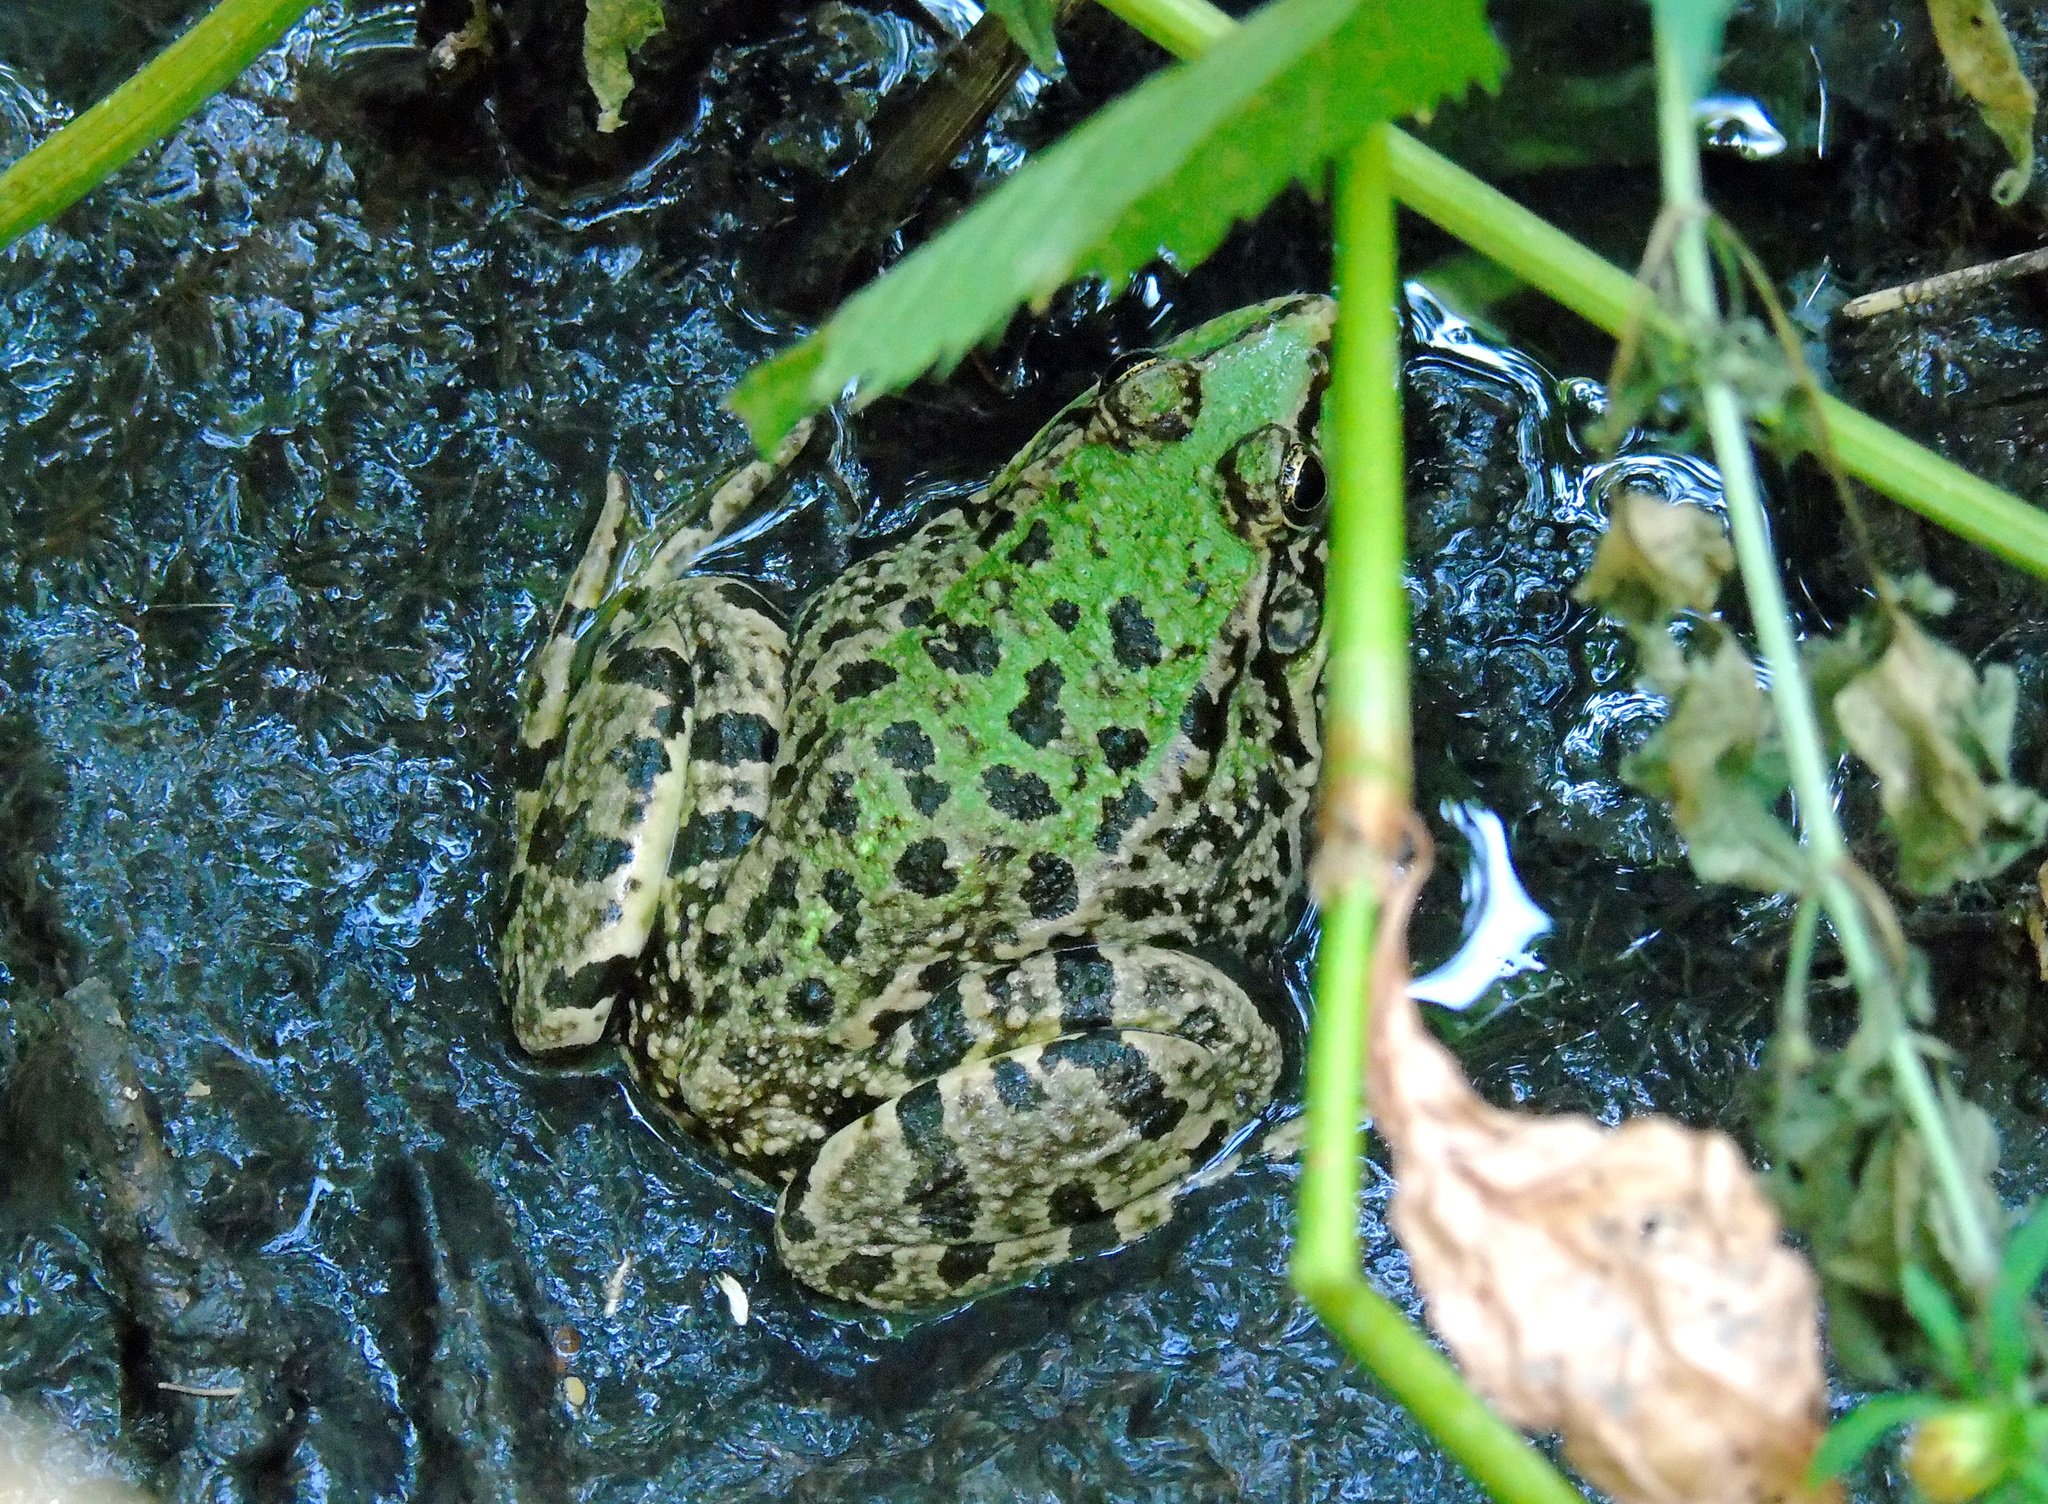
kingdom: Animalia
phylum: Chordata
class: Amphibia
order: Anura
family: Ranidae
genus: Pelophylax
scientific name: Pelophylax ridibundus
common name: Marsh frog
